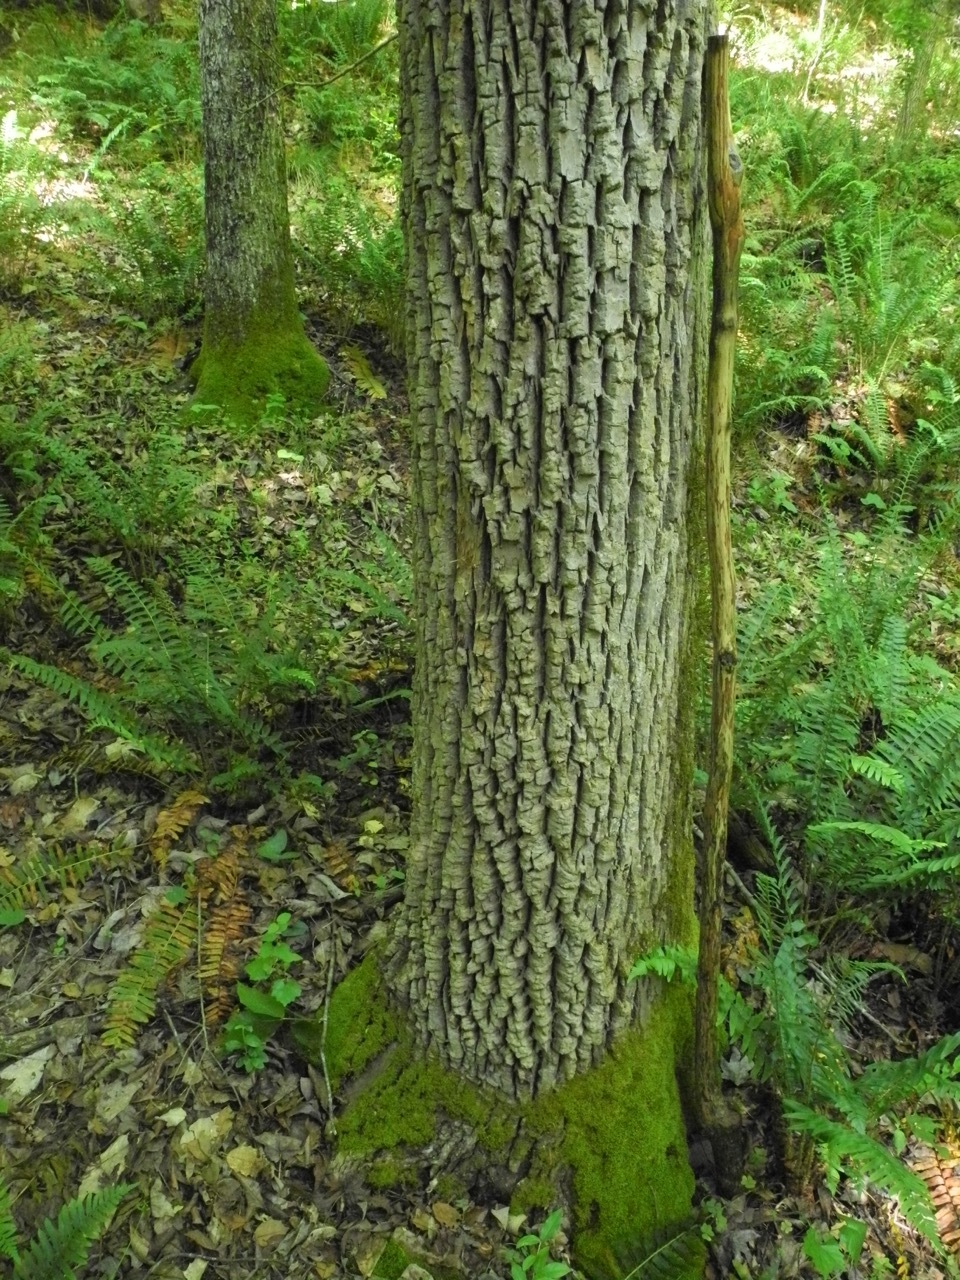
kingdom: Plantae
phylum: Tracheophyta
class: Magnoliopsida
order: Lamiales
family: Oleaceae
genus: Fraxinus
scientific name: Fraxinus americana
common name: White ash
